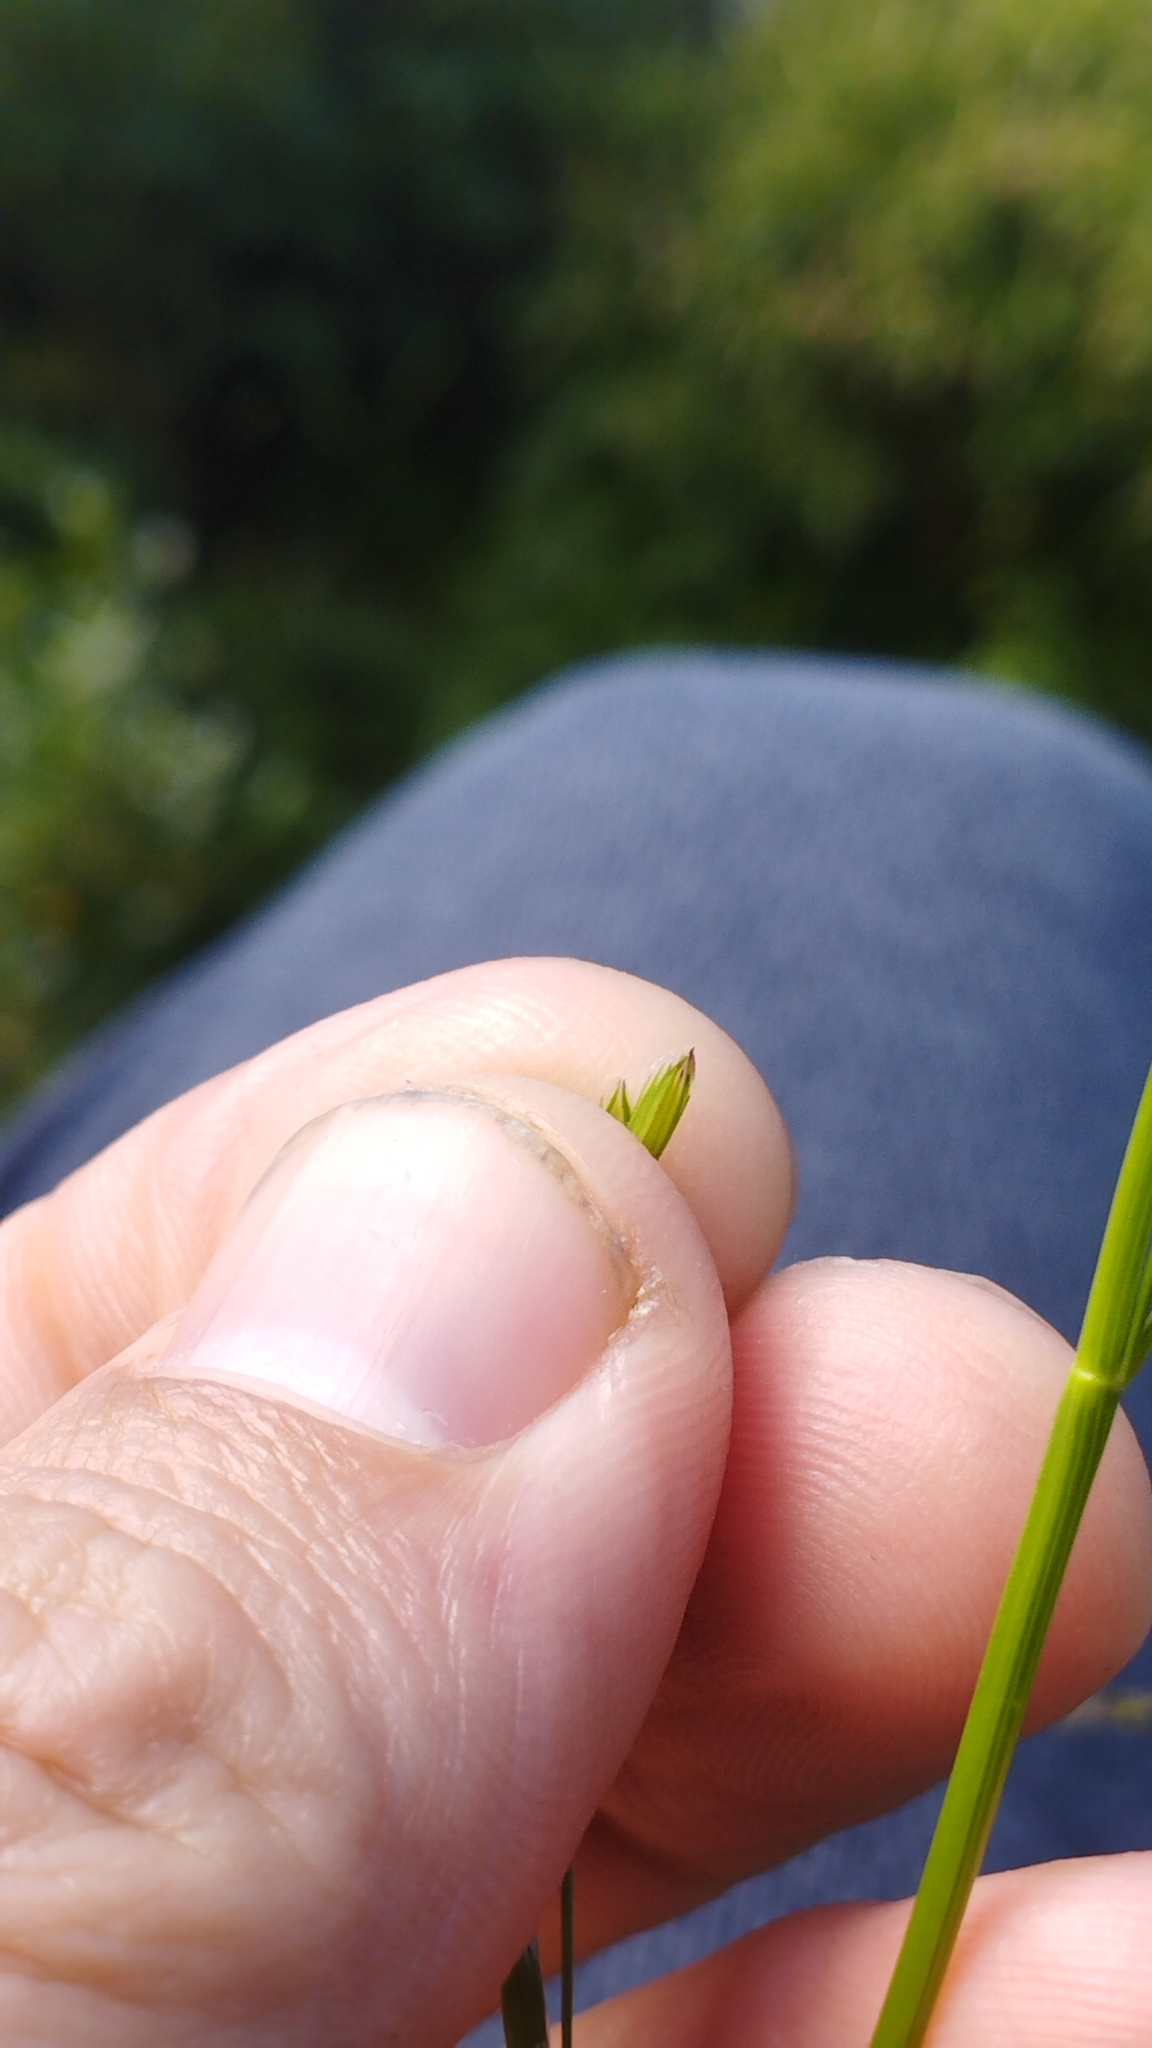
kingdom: Plantae
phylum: Tracheophyta
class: Liliopsida
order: Poales
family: Poaceae
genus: Glyceria
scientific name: Glyceria fluitans
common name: Floating sweet-grass
